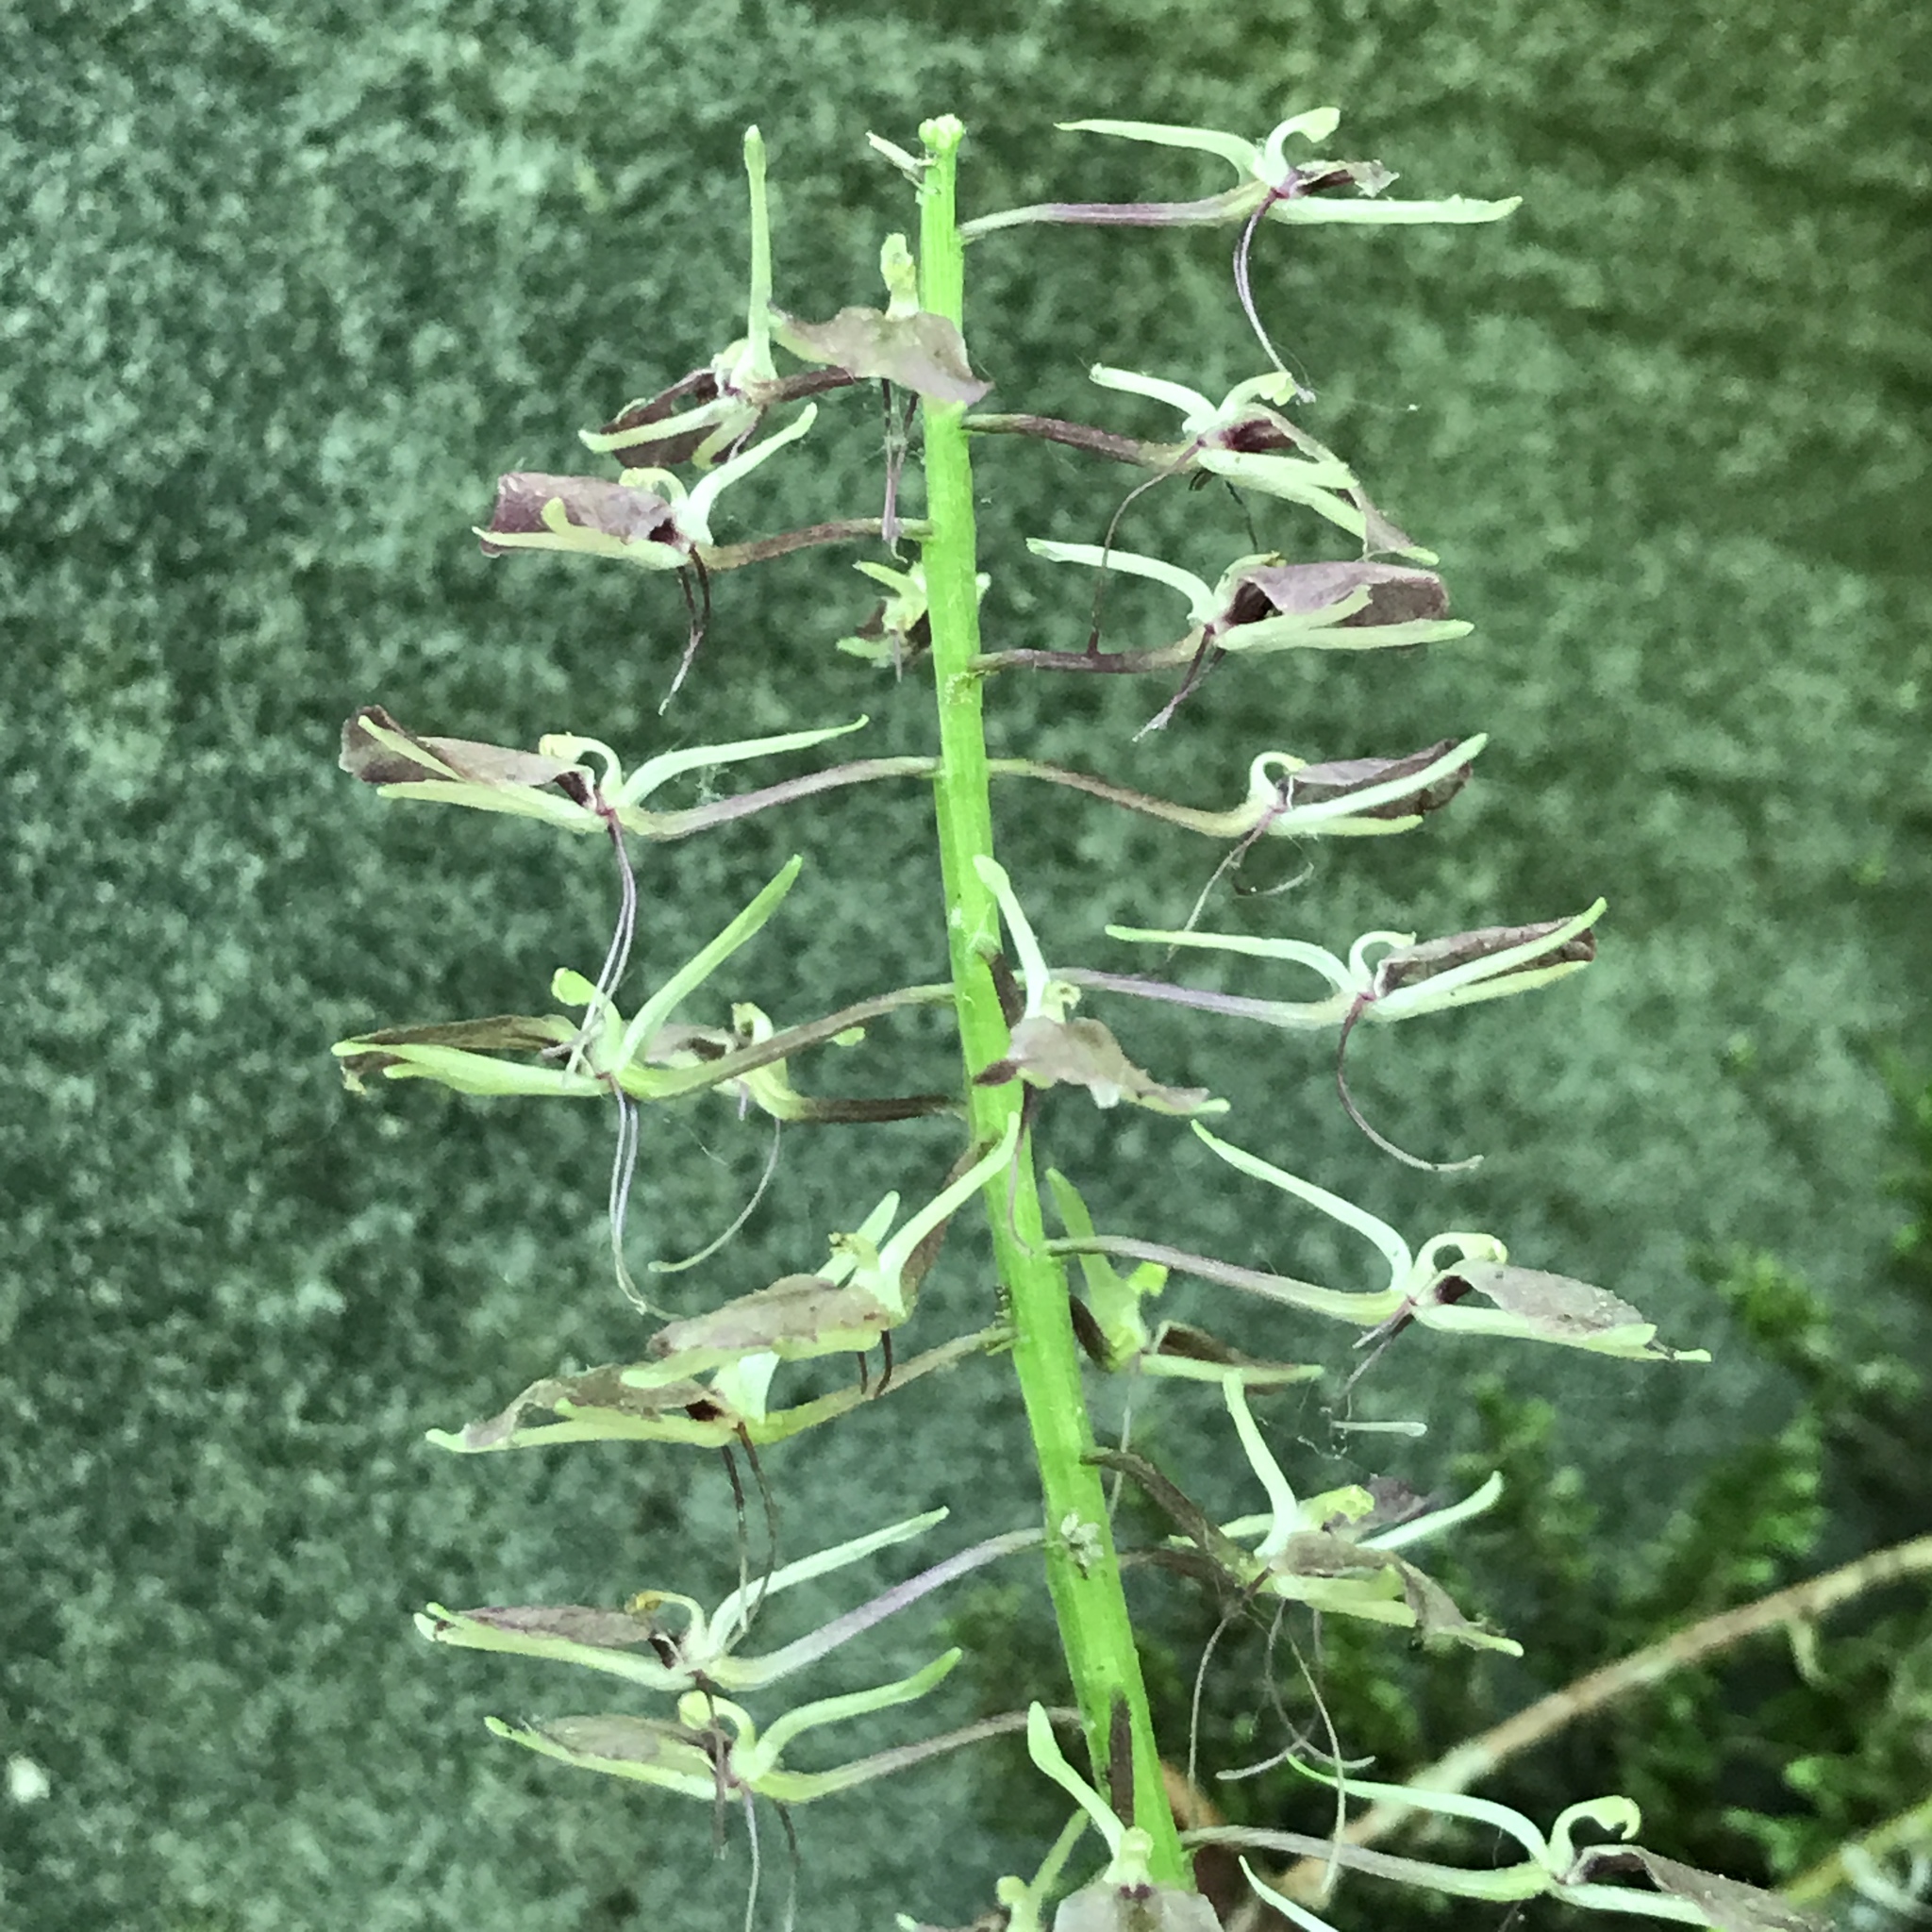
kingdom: Plantae
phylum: Tracheophyta
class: Liliopsida
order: Asparagales
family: Orchidaceae
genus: Liparis
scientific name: Liparis liliifolia
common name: Brown wide-lip orchid
